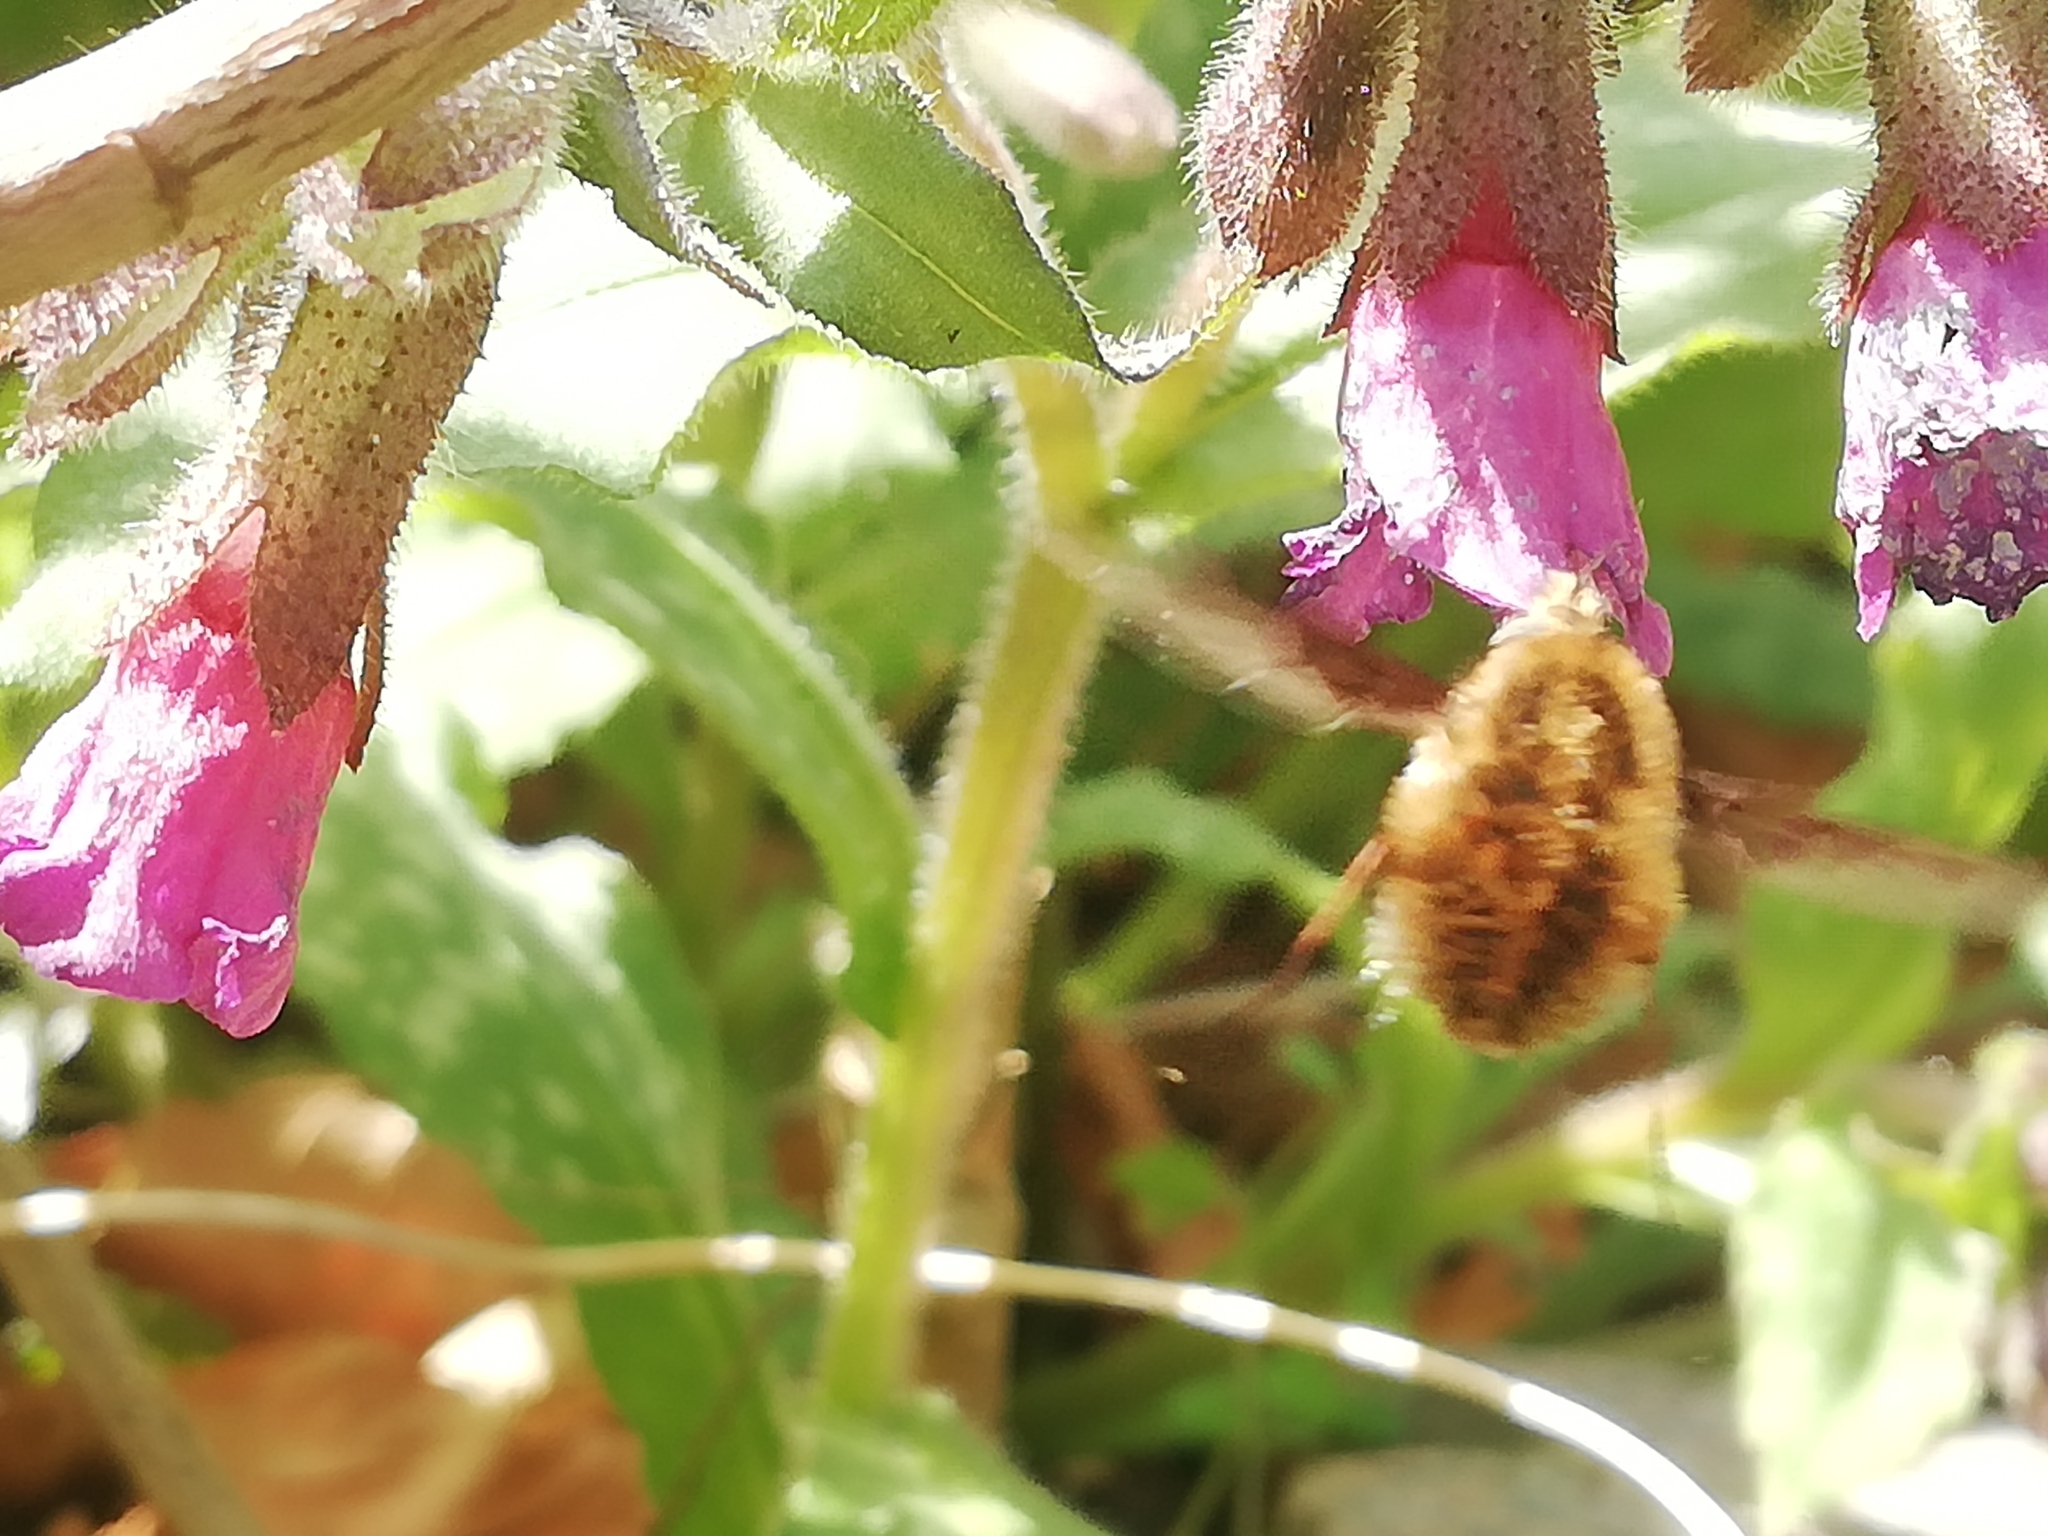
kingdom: Animalia
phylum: Arthropoda
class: Insecta
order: Diptera
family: Bombyliidae
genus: Bombylius
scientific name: Bombylius major
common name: Bee fly
